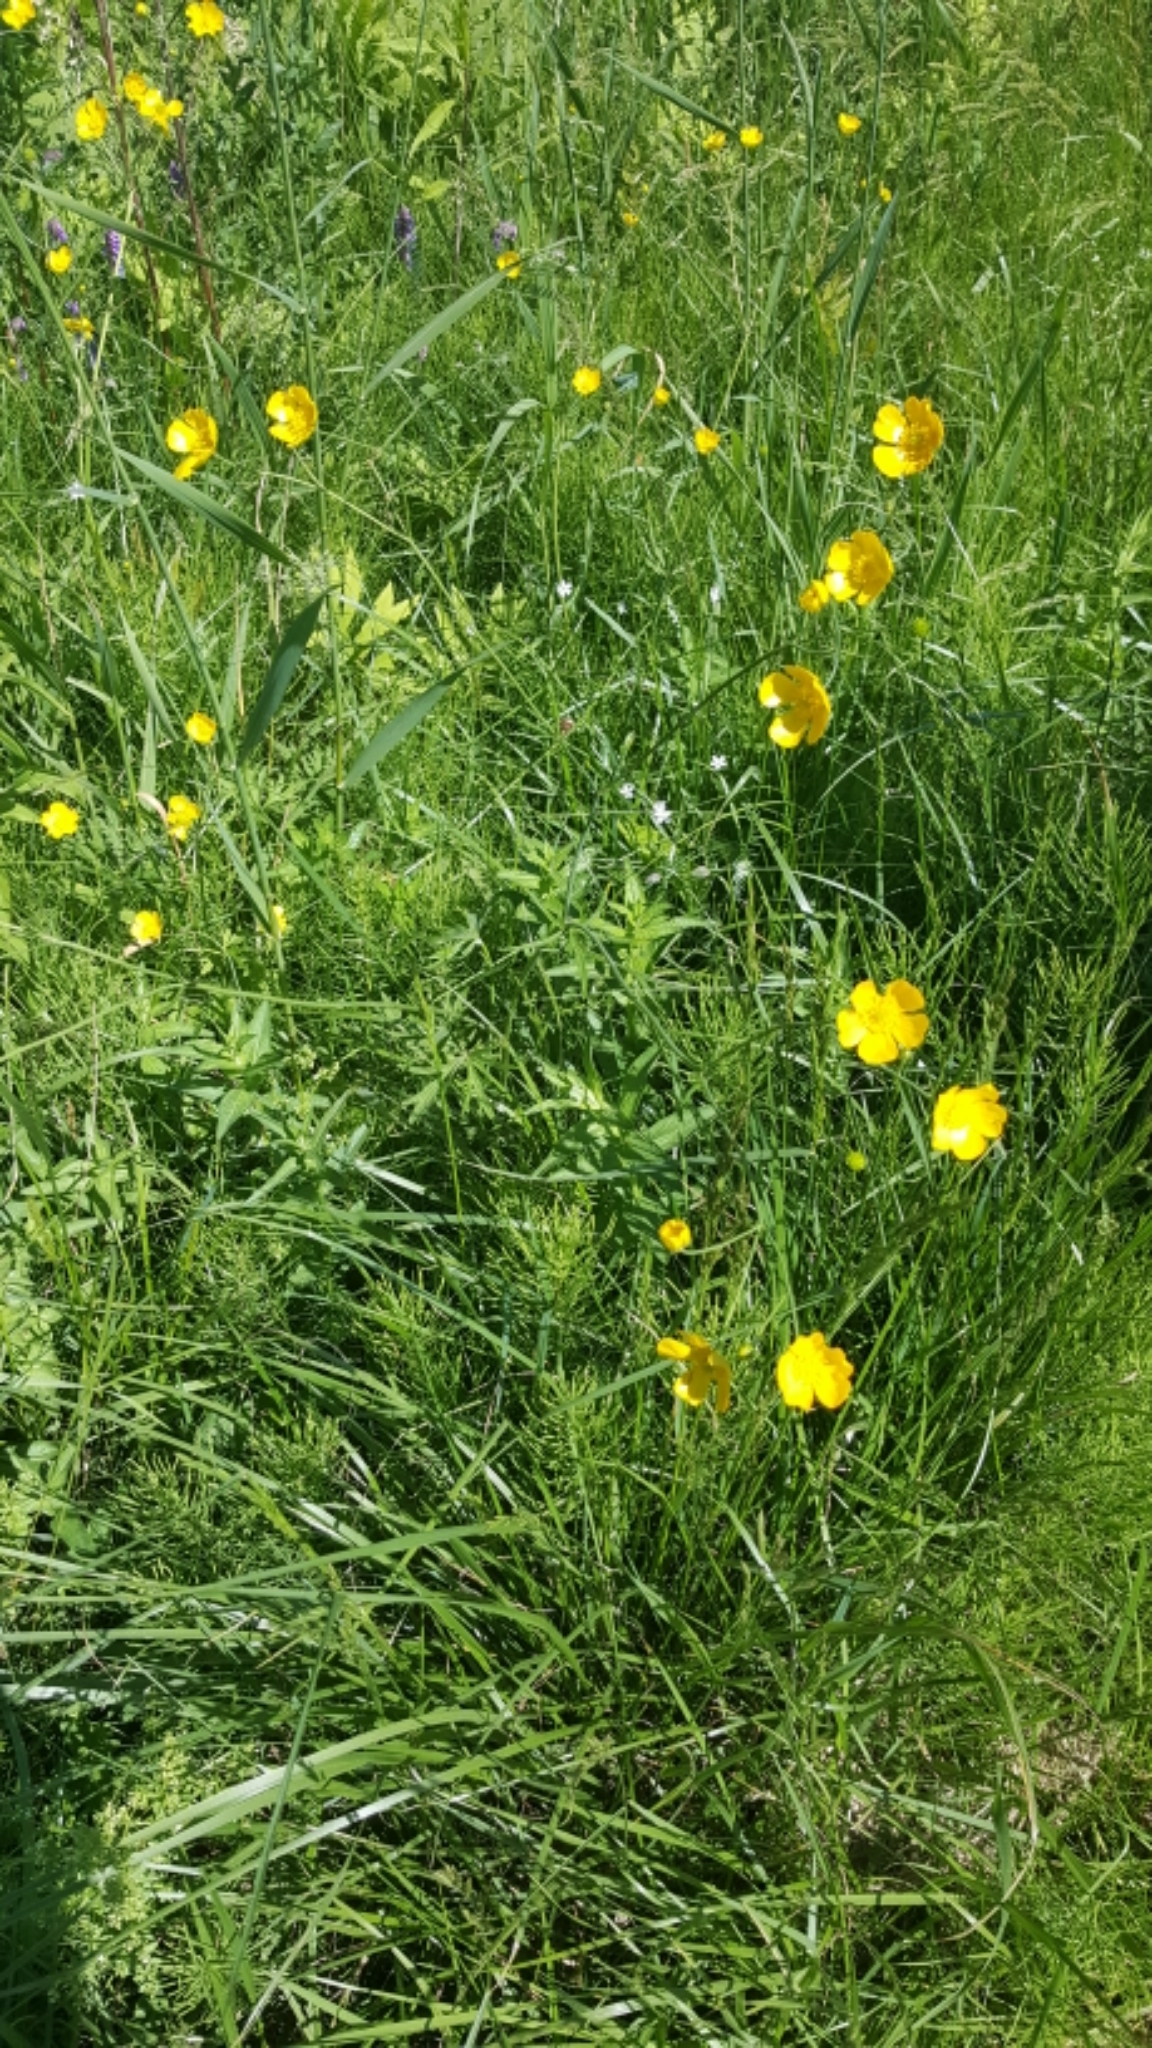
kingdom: Plantae
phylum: Tracheophyta
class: Magnoliopsida
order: Ranunculales
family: Ranunculaceae
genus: Ranunculus
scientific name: Ranunculus acris
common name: Meadow buttercup
